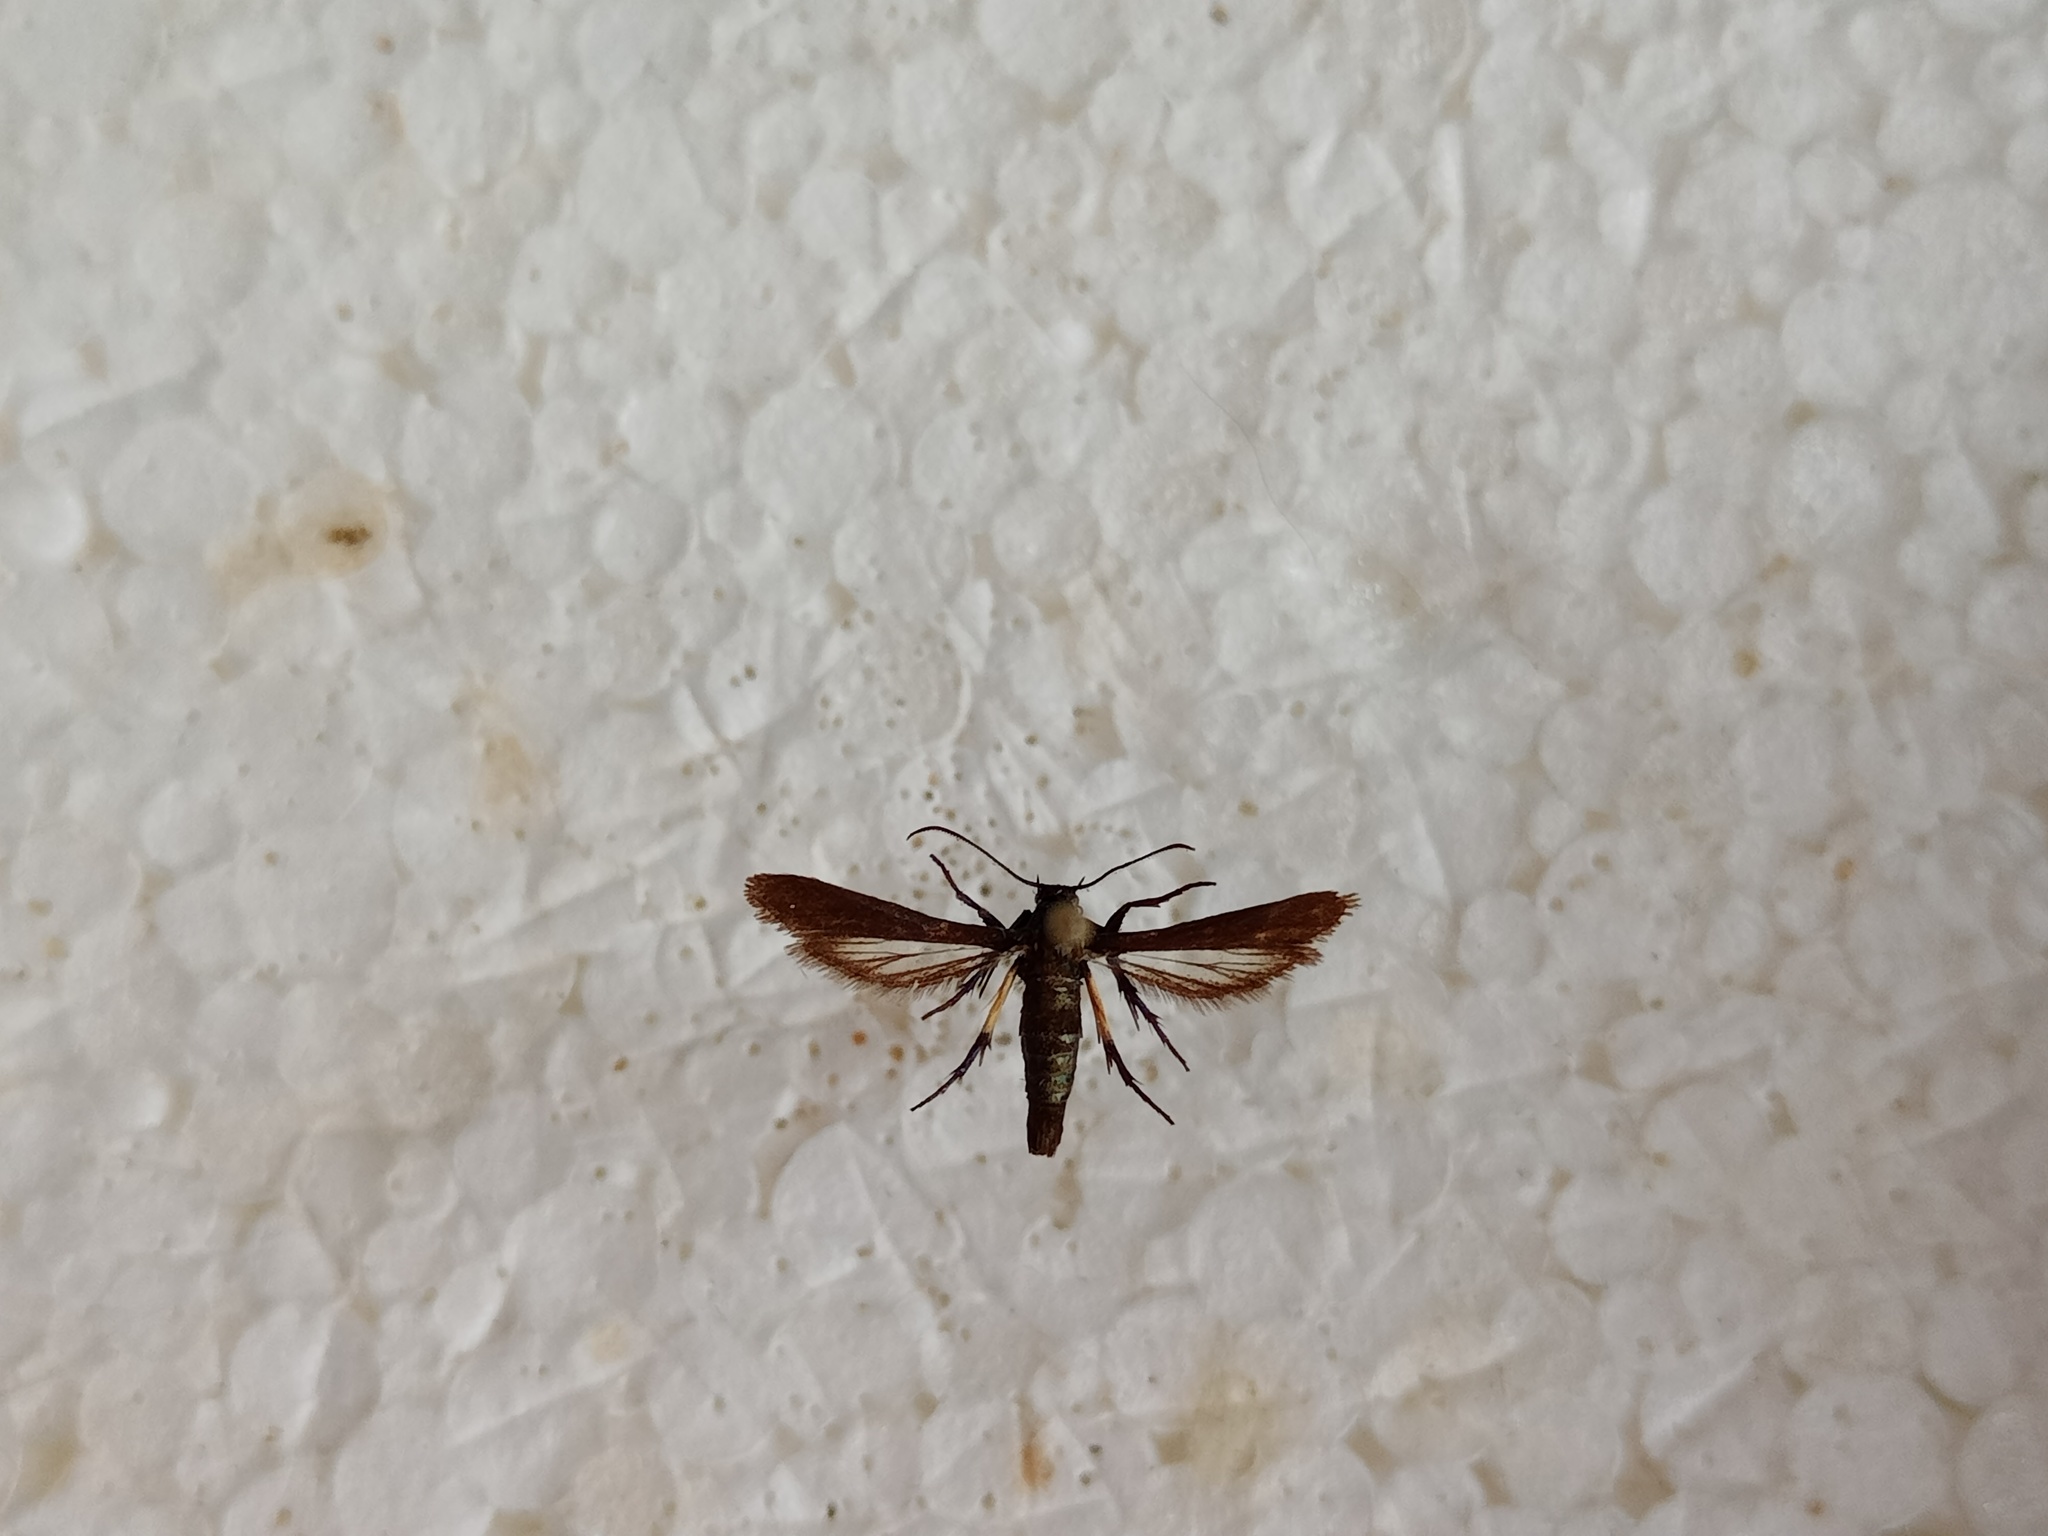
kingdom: Animalia
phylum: Arthropoda
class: Insecta
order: Lepidoptera
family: Sesiidae
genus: Negotinthia
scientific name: Negotinthia myrmosaeformis
